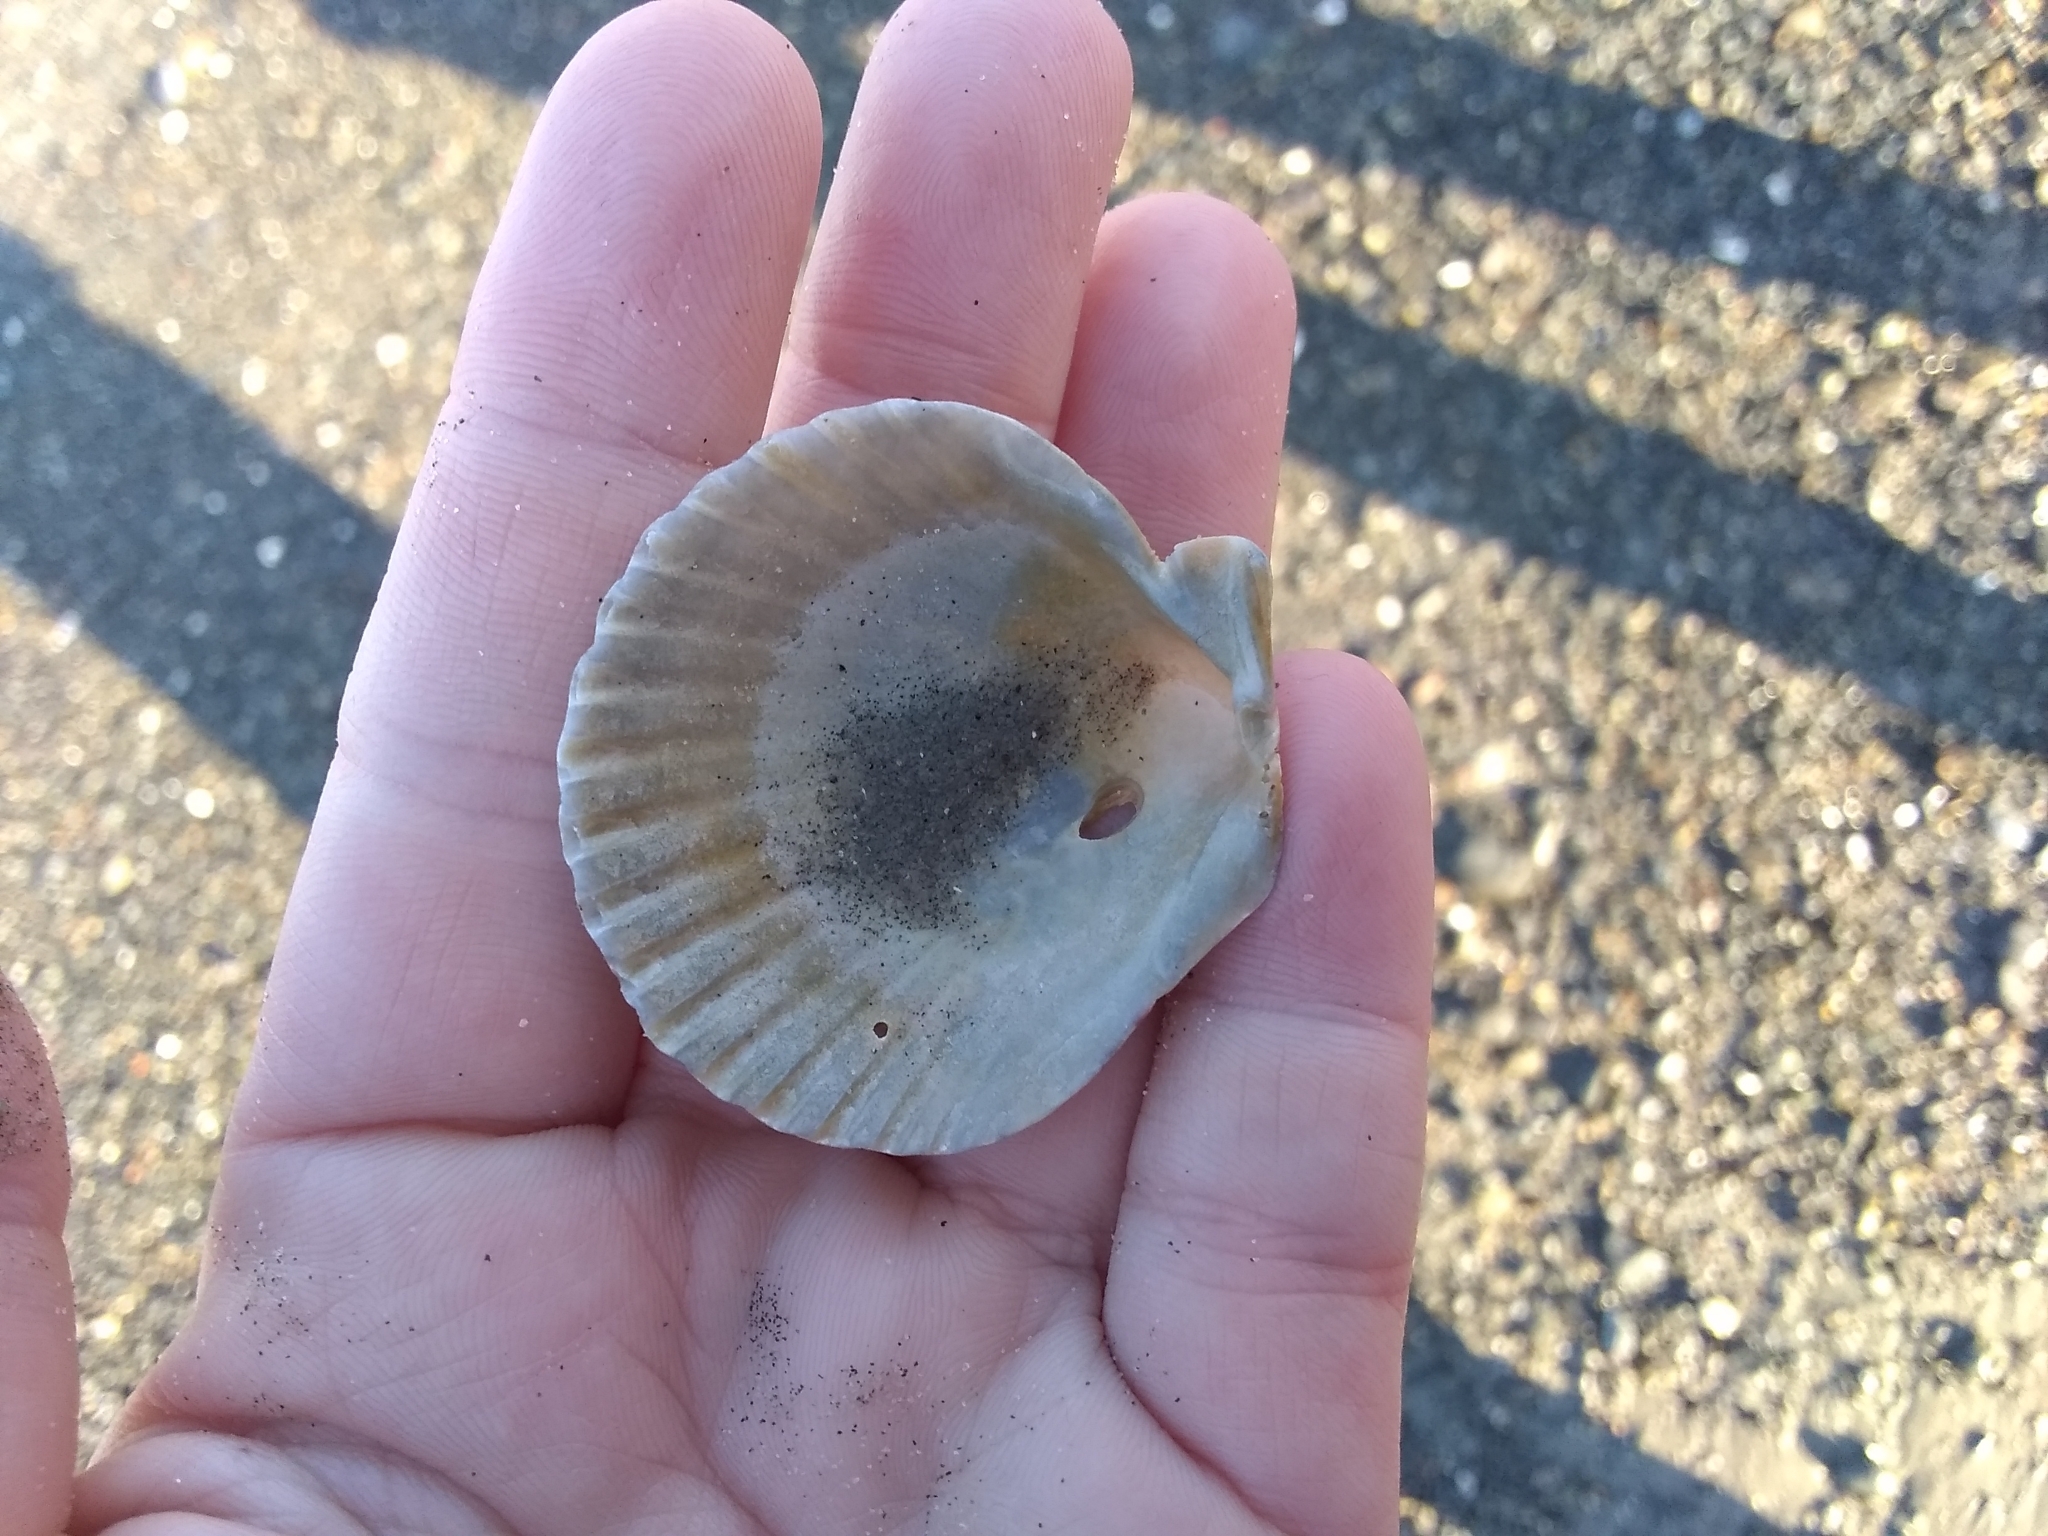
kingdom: Animalia
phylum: Mollusca
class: Bivalvia
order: Pectinida
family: Pectinidae
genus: Argopecten
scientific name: Argopecten irradians
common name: Atlantic bay scallop
